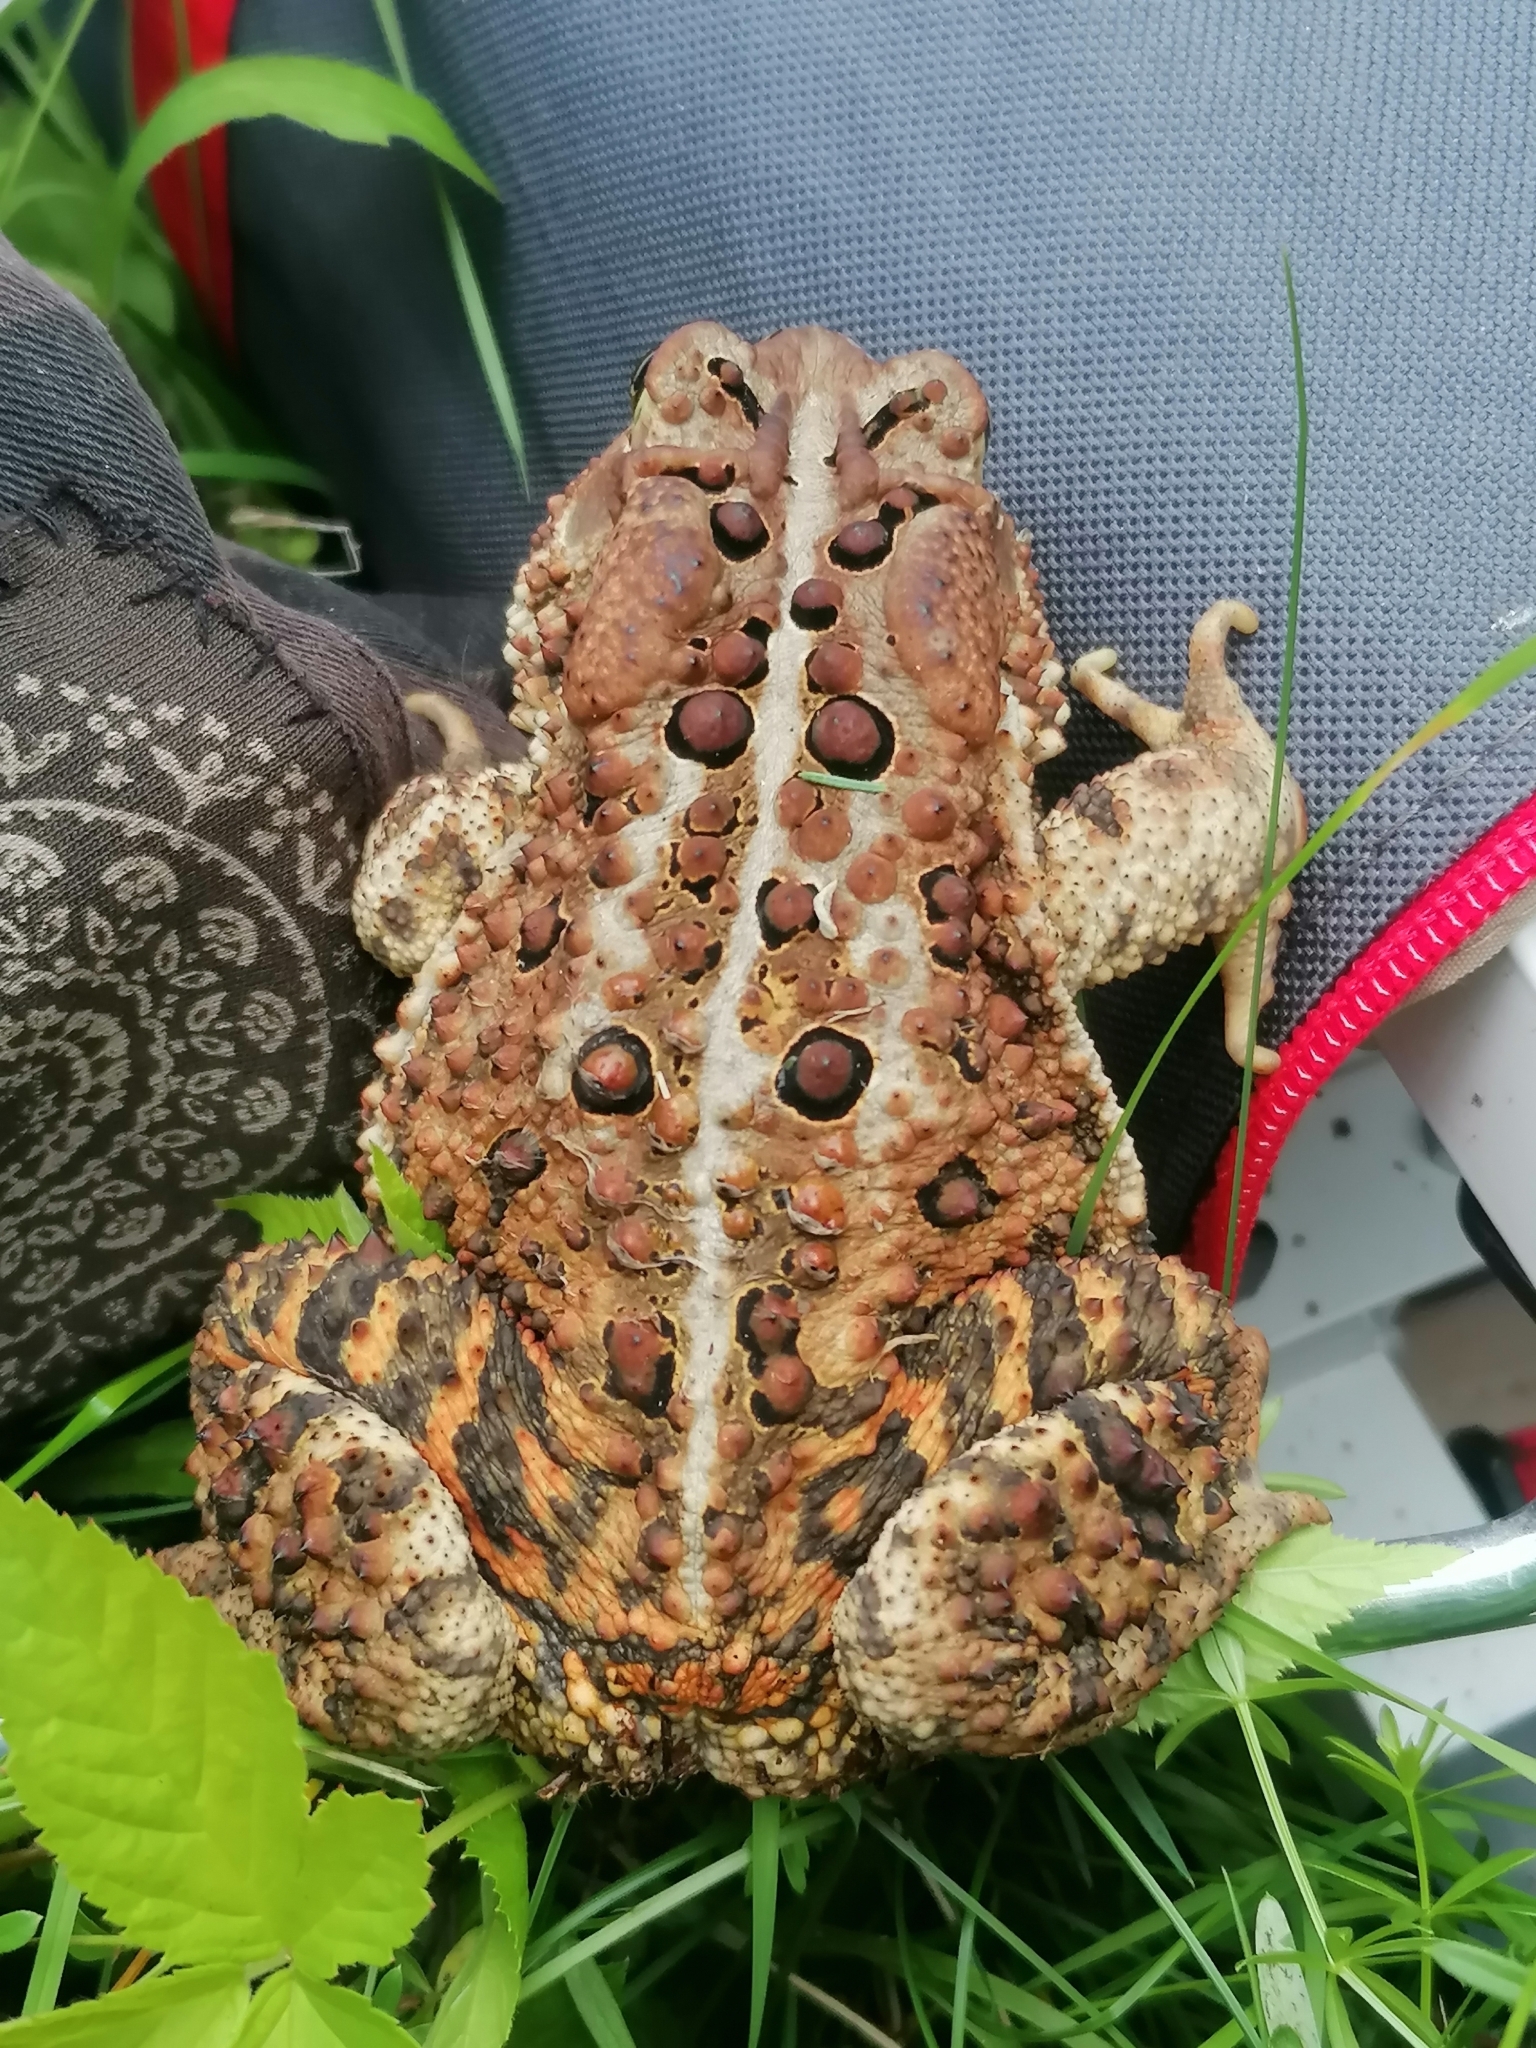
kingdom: Animalia
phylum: Chordata
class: Amphibia
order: Anura
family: Bufonidae
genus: Anaxyrus
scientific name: Anaxyrus americanus
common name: American toad
